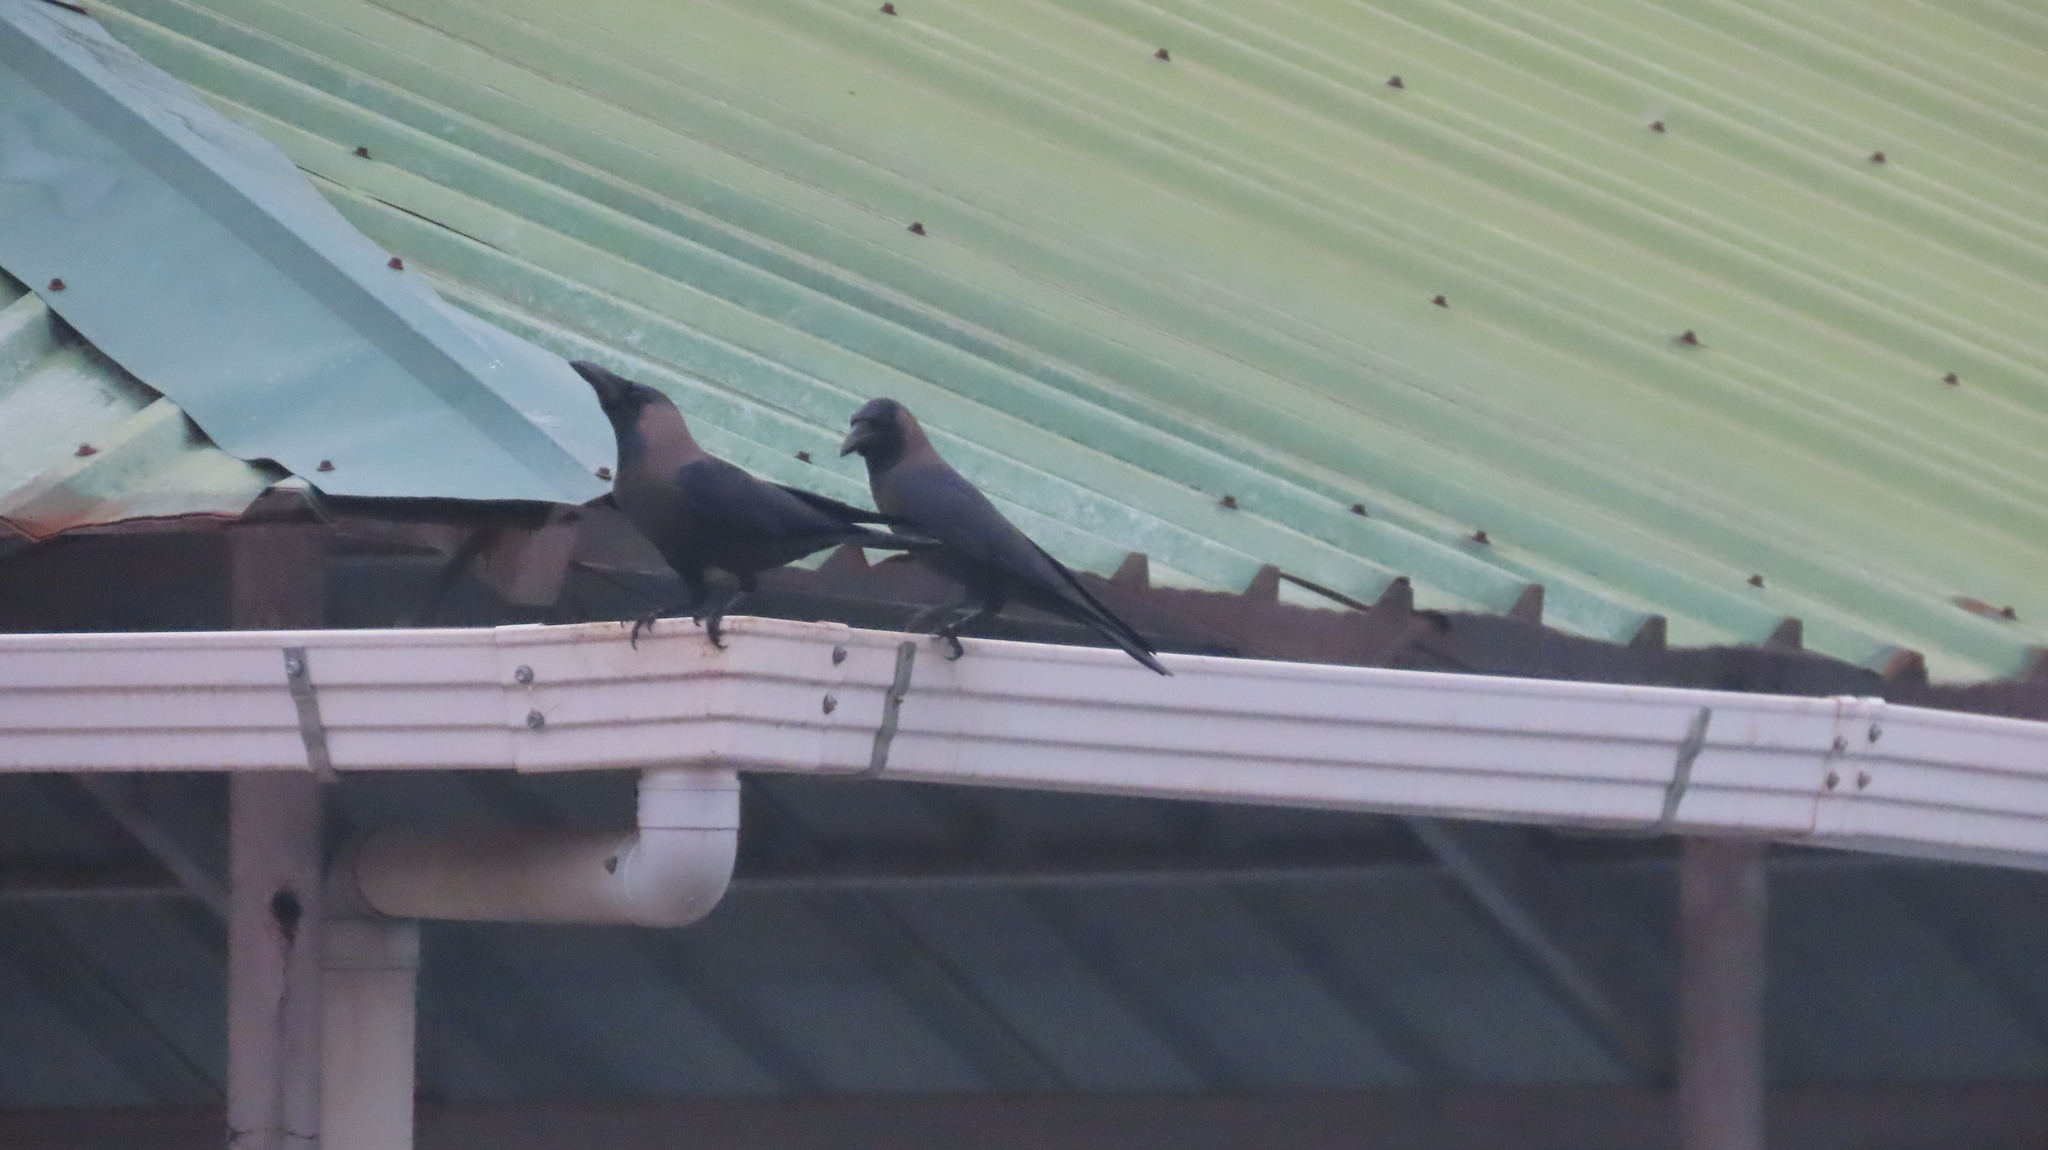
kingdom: Animalia
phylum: Chordata
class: Aves
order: Passeriformes
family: Corvidae
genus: Corvus
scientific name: Corvus splendens
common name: House crow
